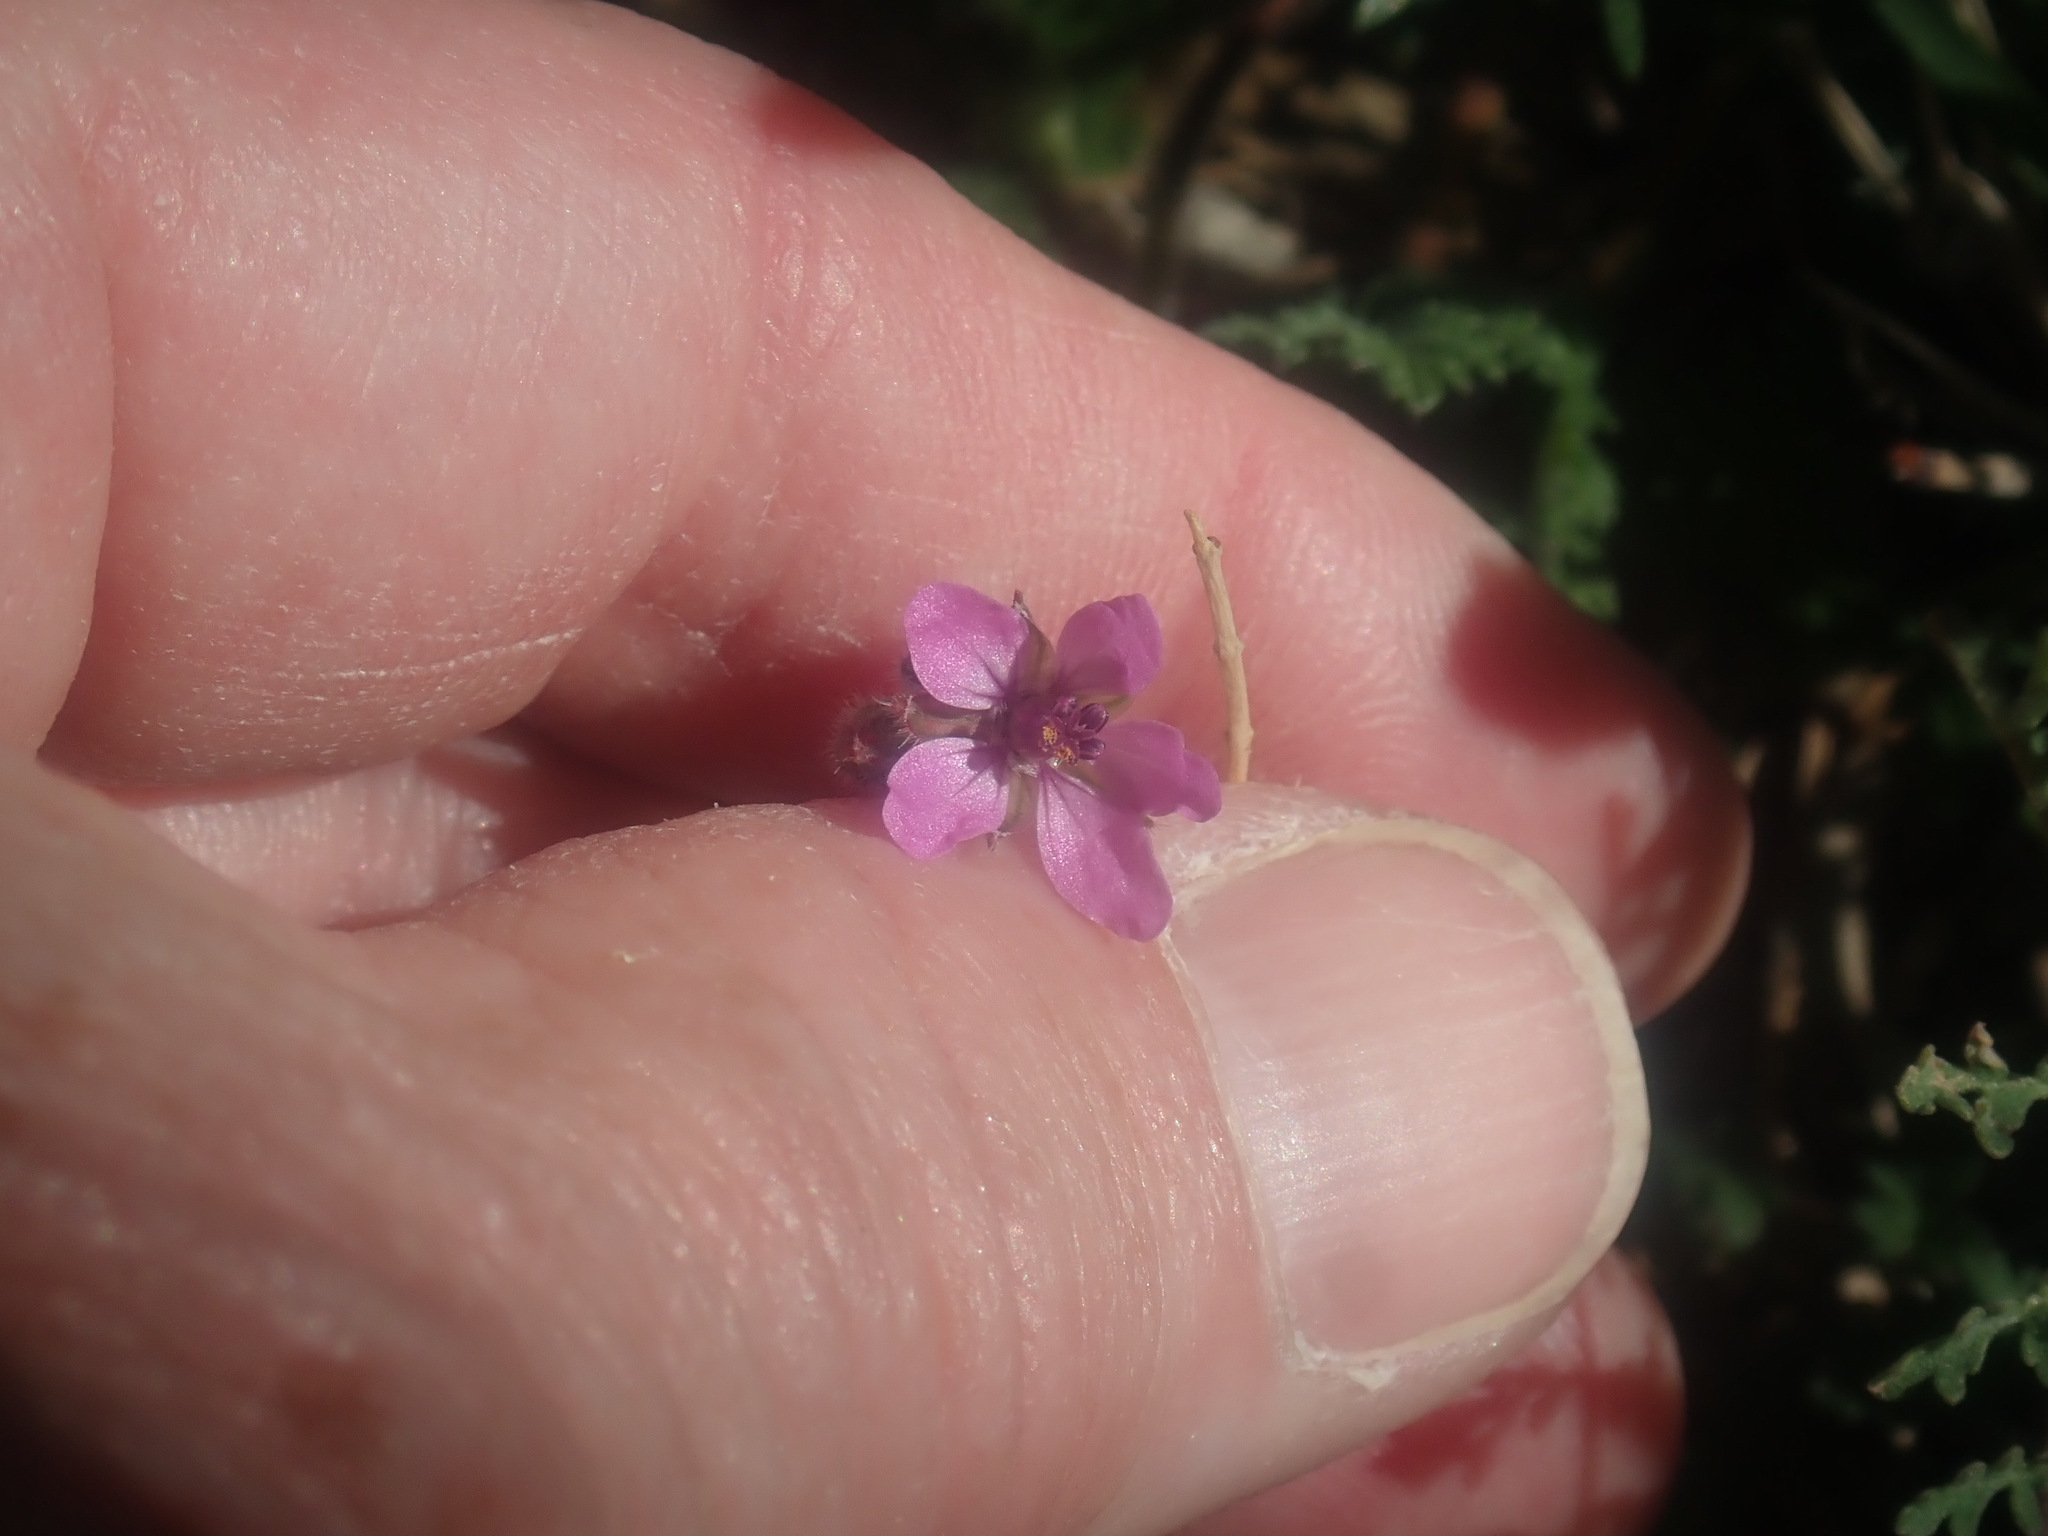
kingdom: Plantae
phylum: Tracheophyta
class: Magnoliopsida
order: Geraniales
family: Geraniaceae
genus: Erodium
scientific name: Erodium cicutarium
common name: Common stork's-bill
